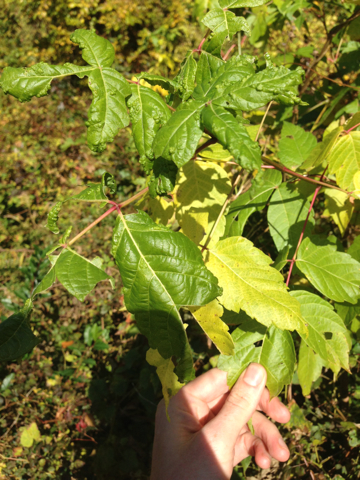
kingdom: Plantae
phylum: Tracheophyta
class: Magnoliopsida
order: Sapindales
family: Sapindaceae
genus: Acer
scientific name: Acer negundo
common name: Ashleaf maple
